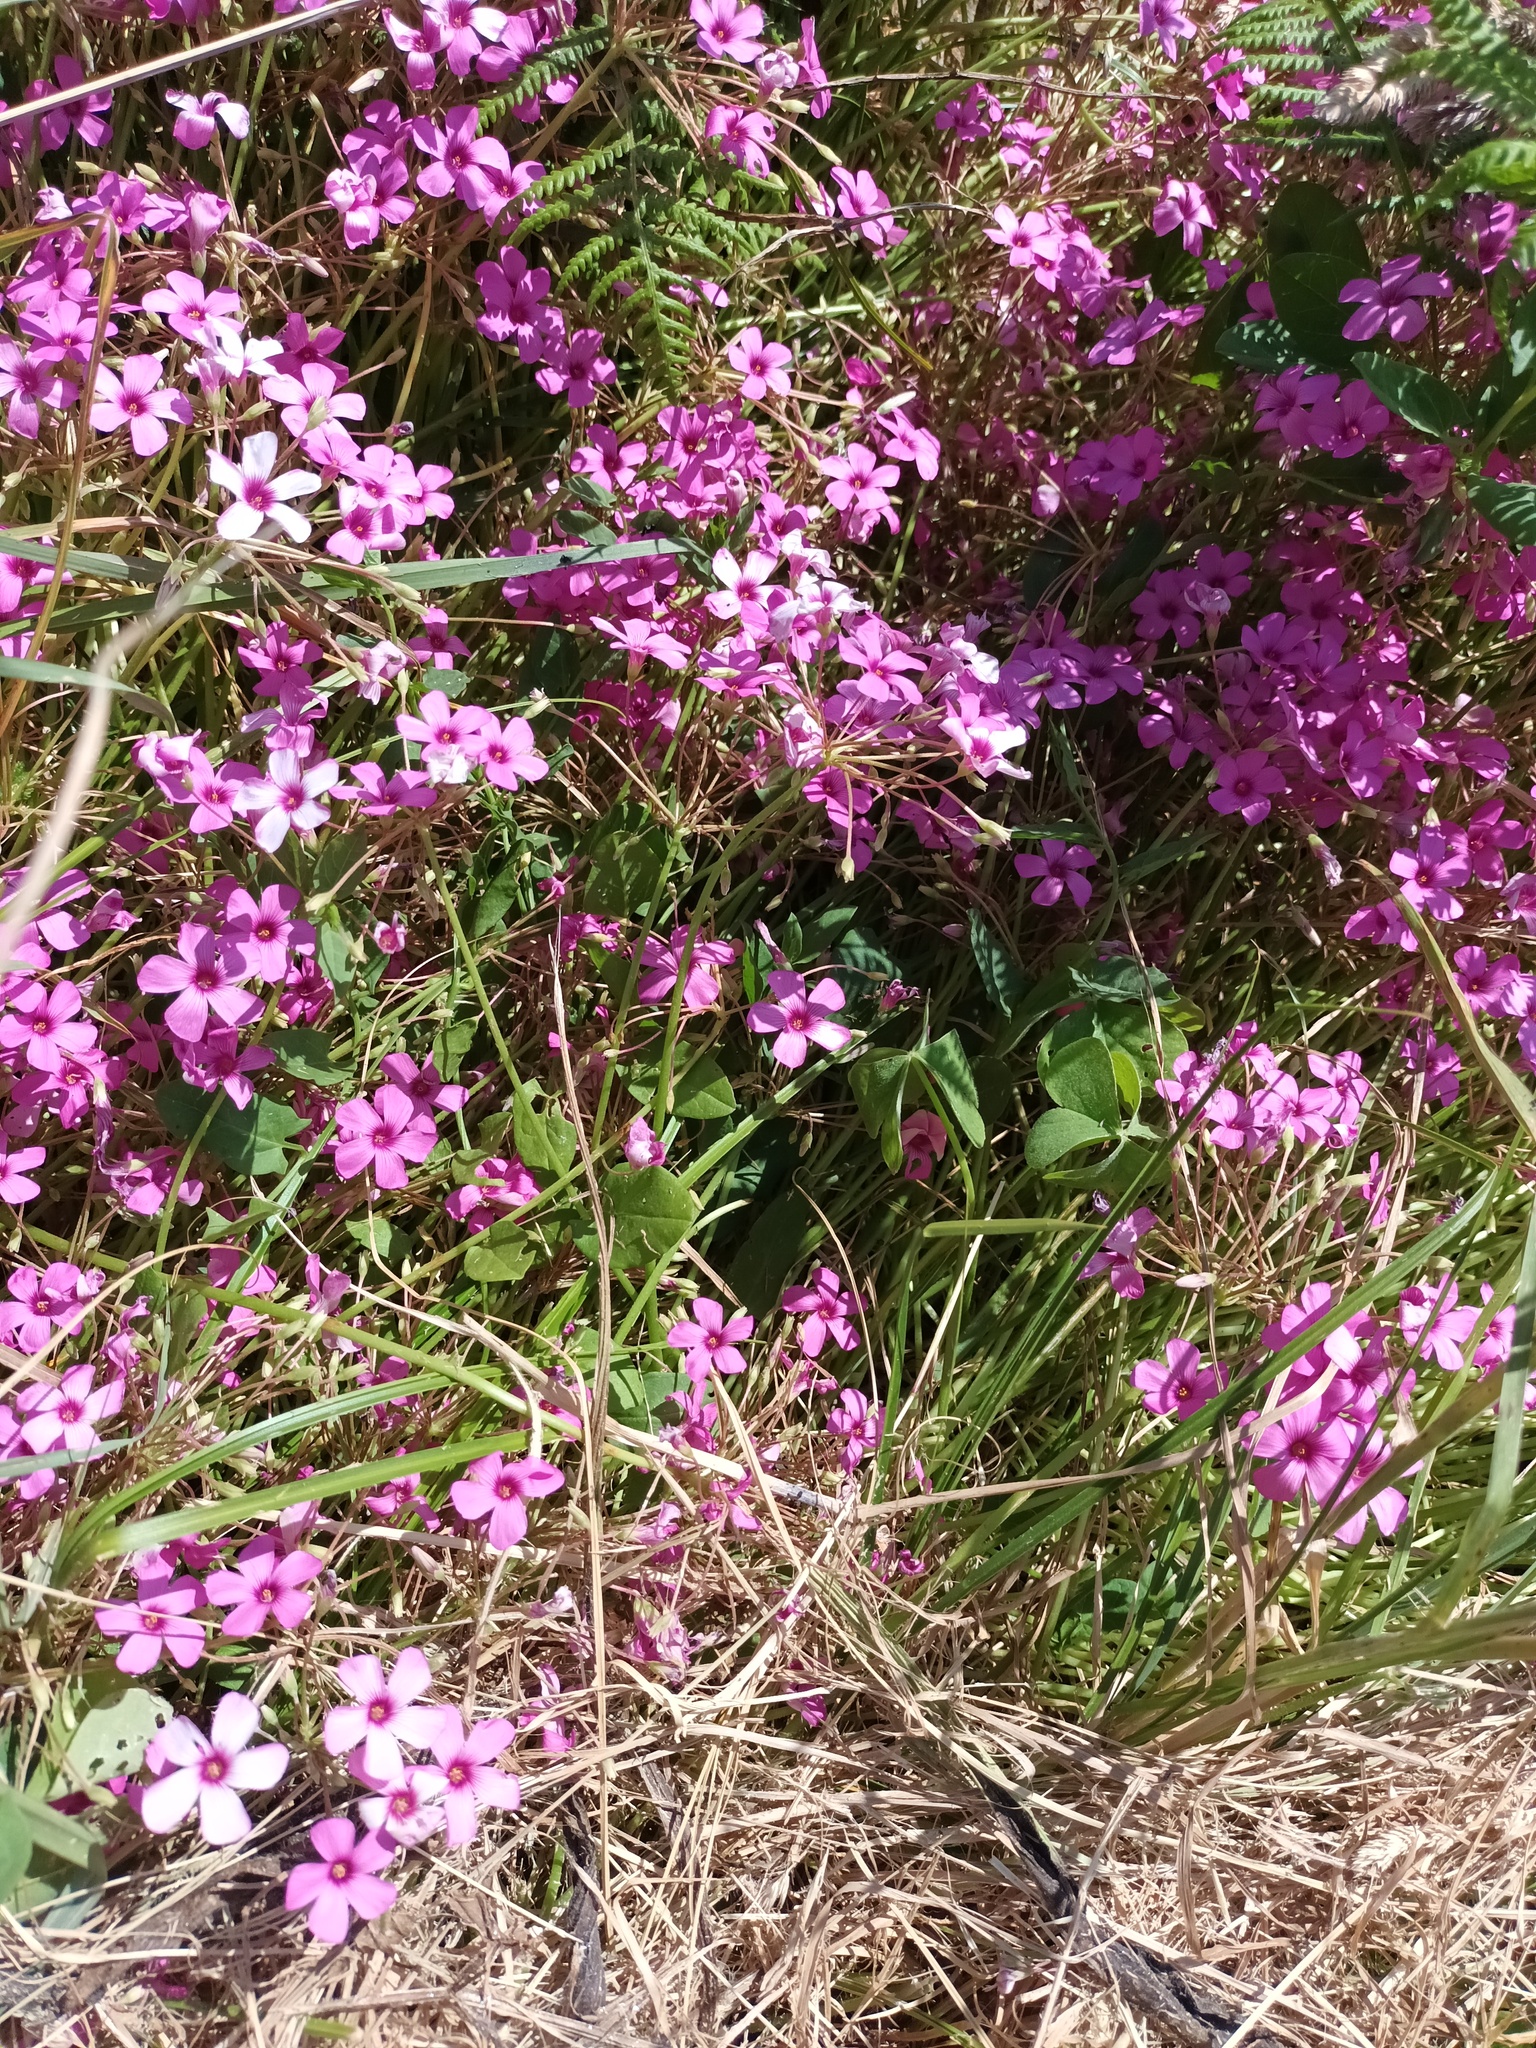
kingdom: Plantae
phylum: Tracheophyta
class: Magnoliopsida
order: Oxalidales
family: Oxalidaceae
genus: Oxalis
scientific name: Oxalis articulata
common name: Pink-sorrel
